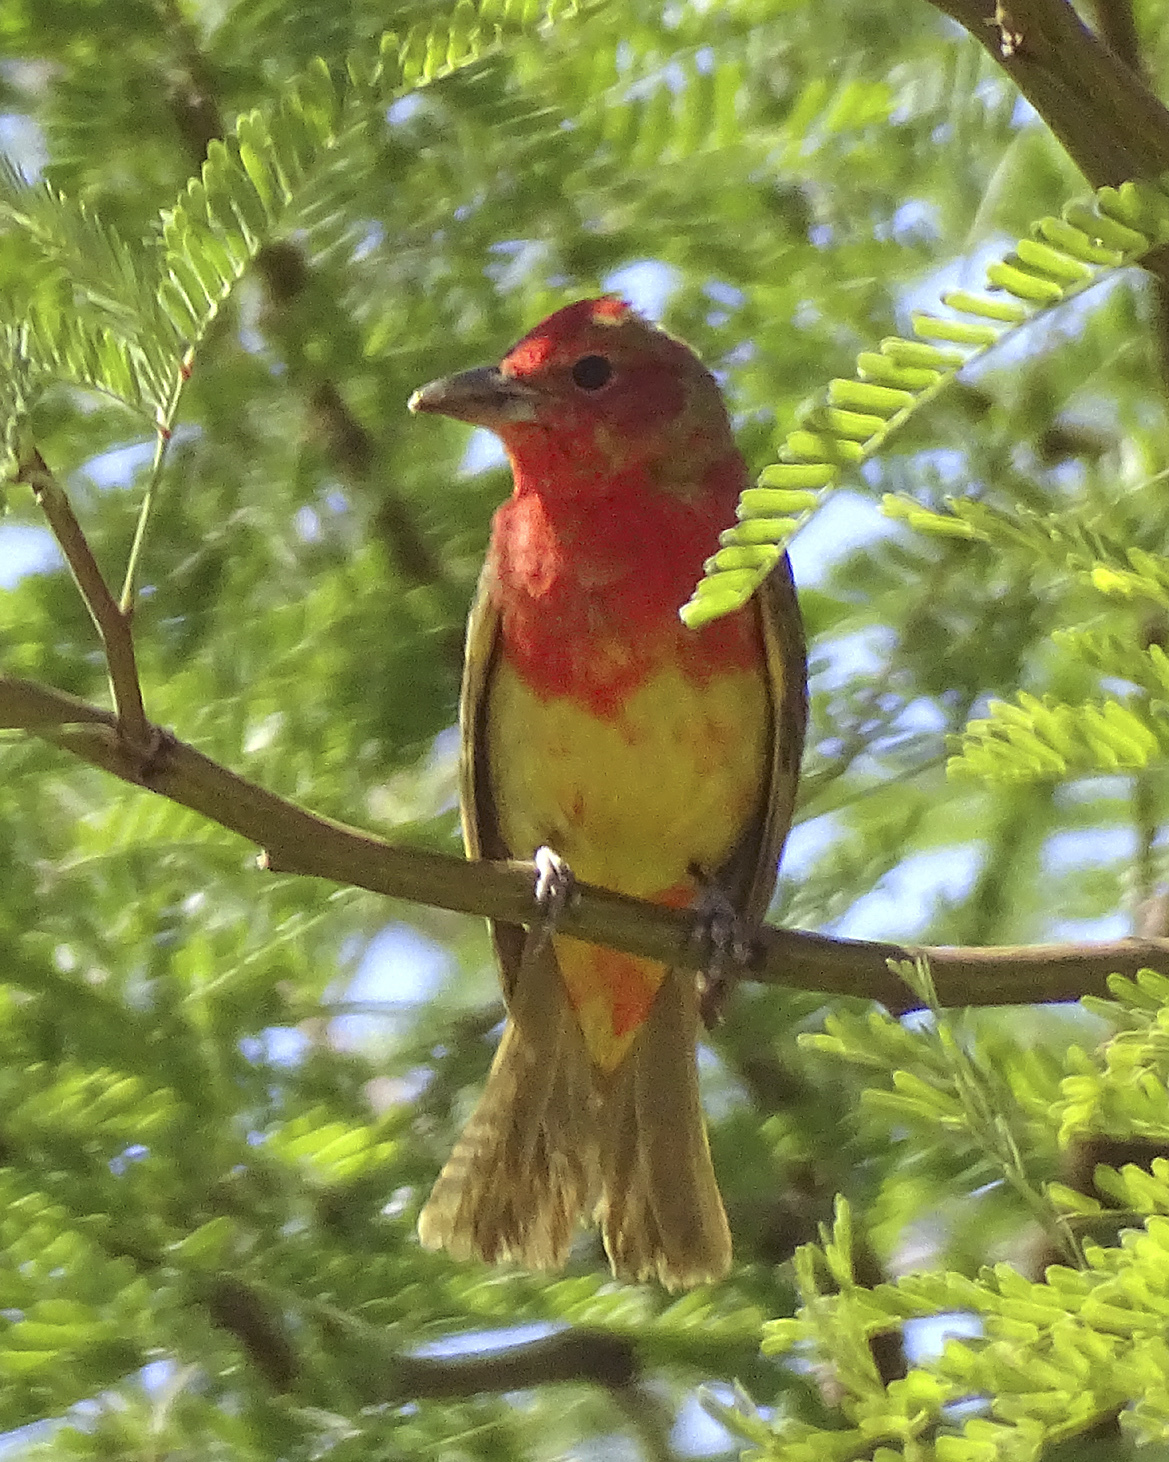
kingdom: Animalia
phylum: Chordata
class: Aves
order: Passeriformes
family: Cardinalidae
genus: Piranga
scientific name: Piranga rubra
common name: Summer tanager
